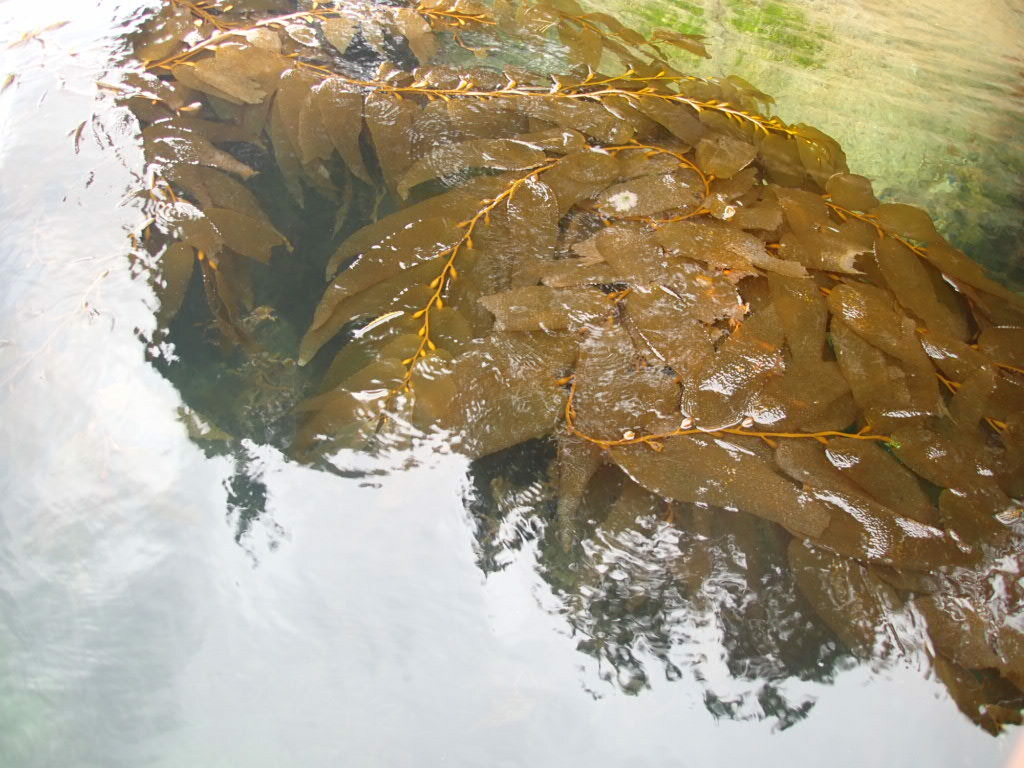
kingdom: Chromista
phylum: Ochrophyta
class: Phaeophyceae
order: Laminariales
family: Laminariaceae
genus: Macrocystis
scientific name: Macrocystis pyrifera
